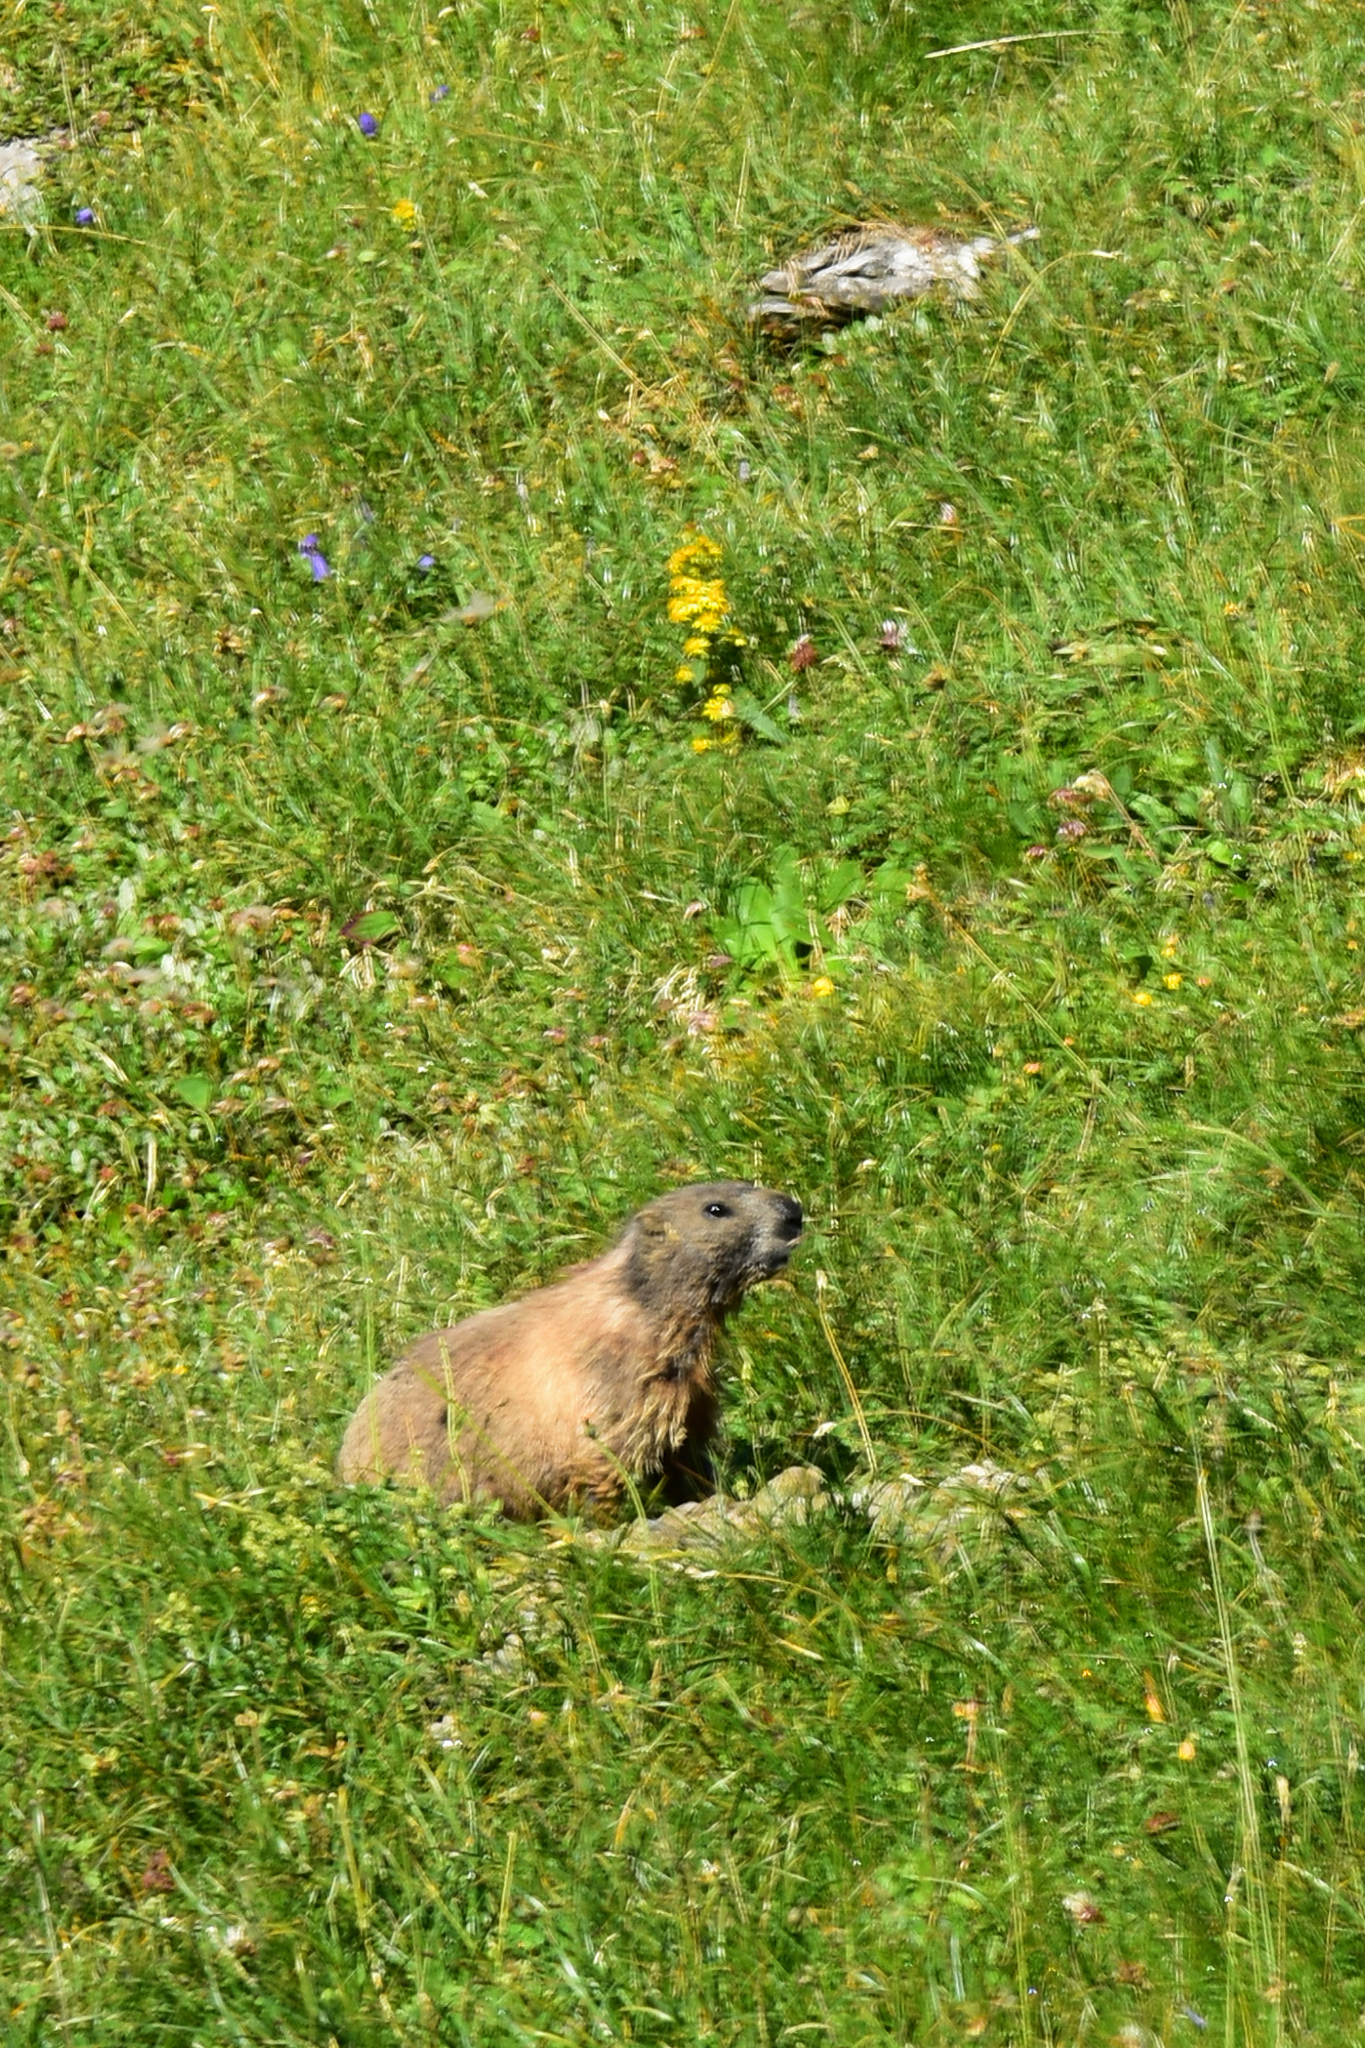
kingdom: Animalia
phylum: Chordata
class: Mammalia
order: Rodentia
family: Sciuridae
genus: Marmota
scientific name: Marmota marmota
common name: Alpine marmot
